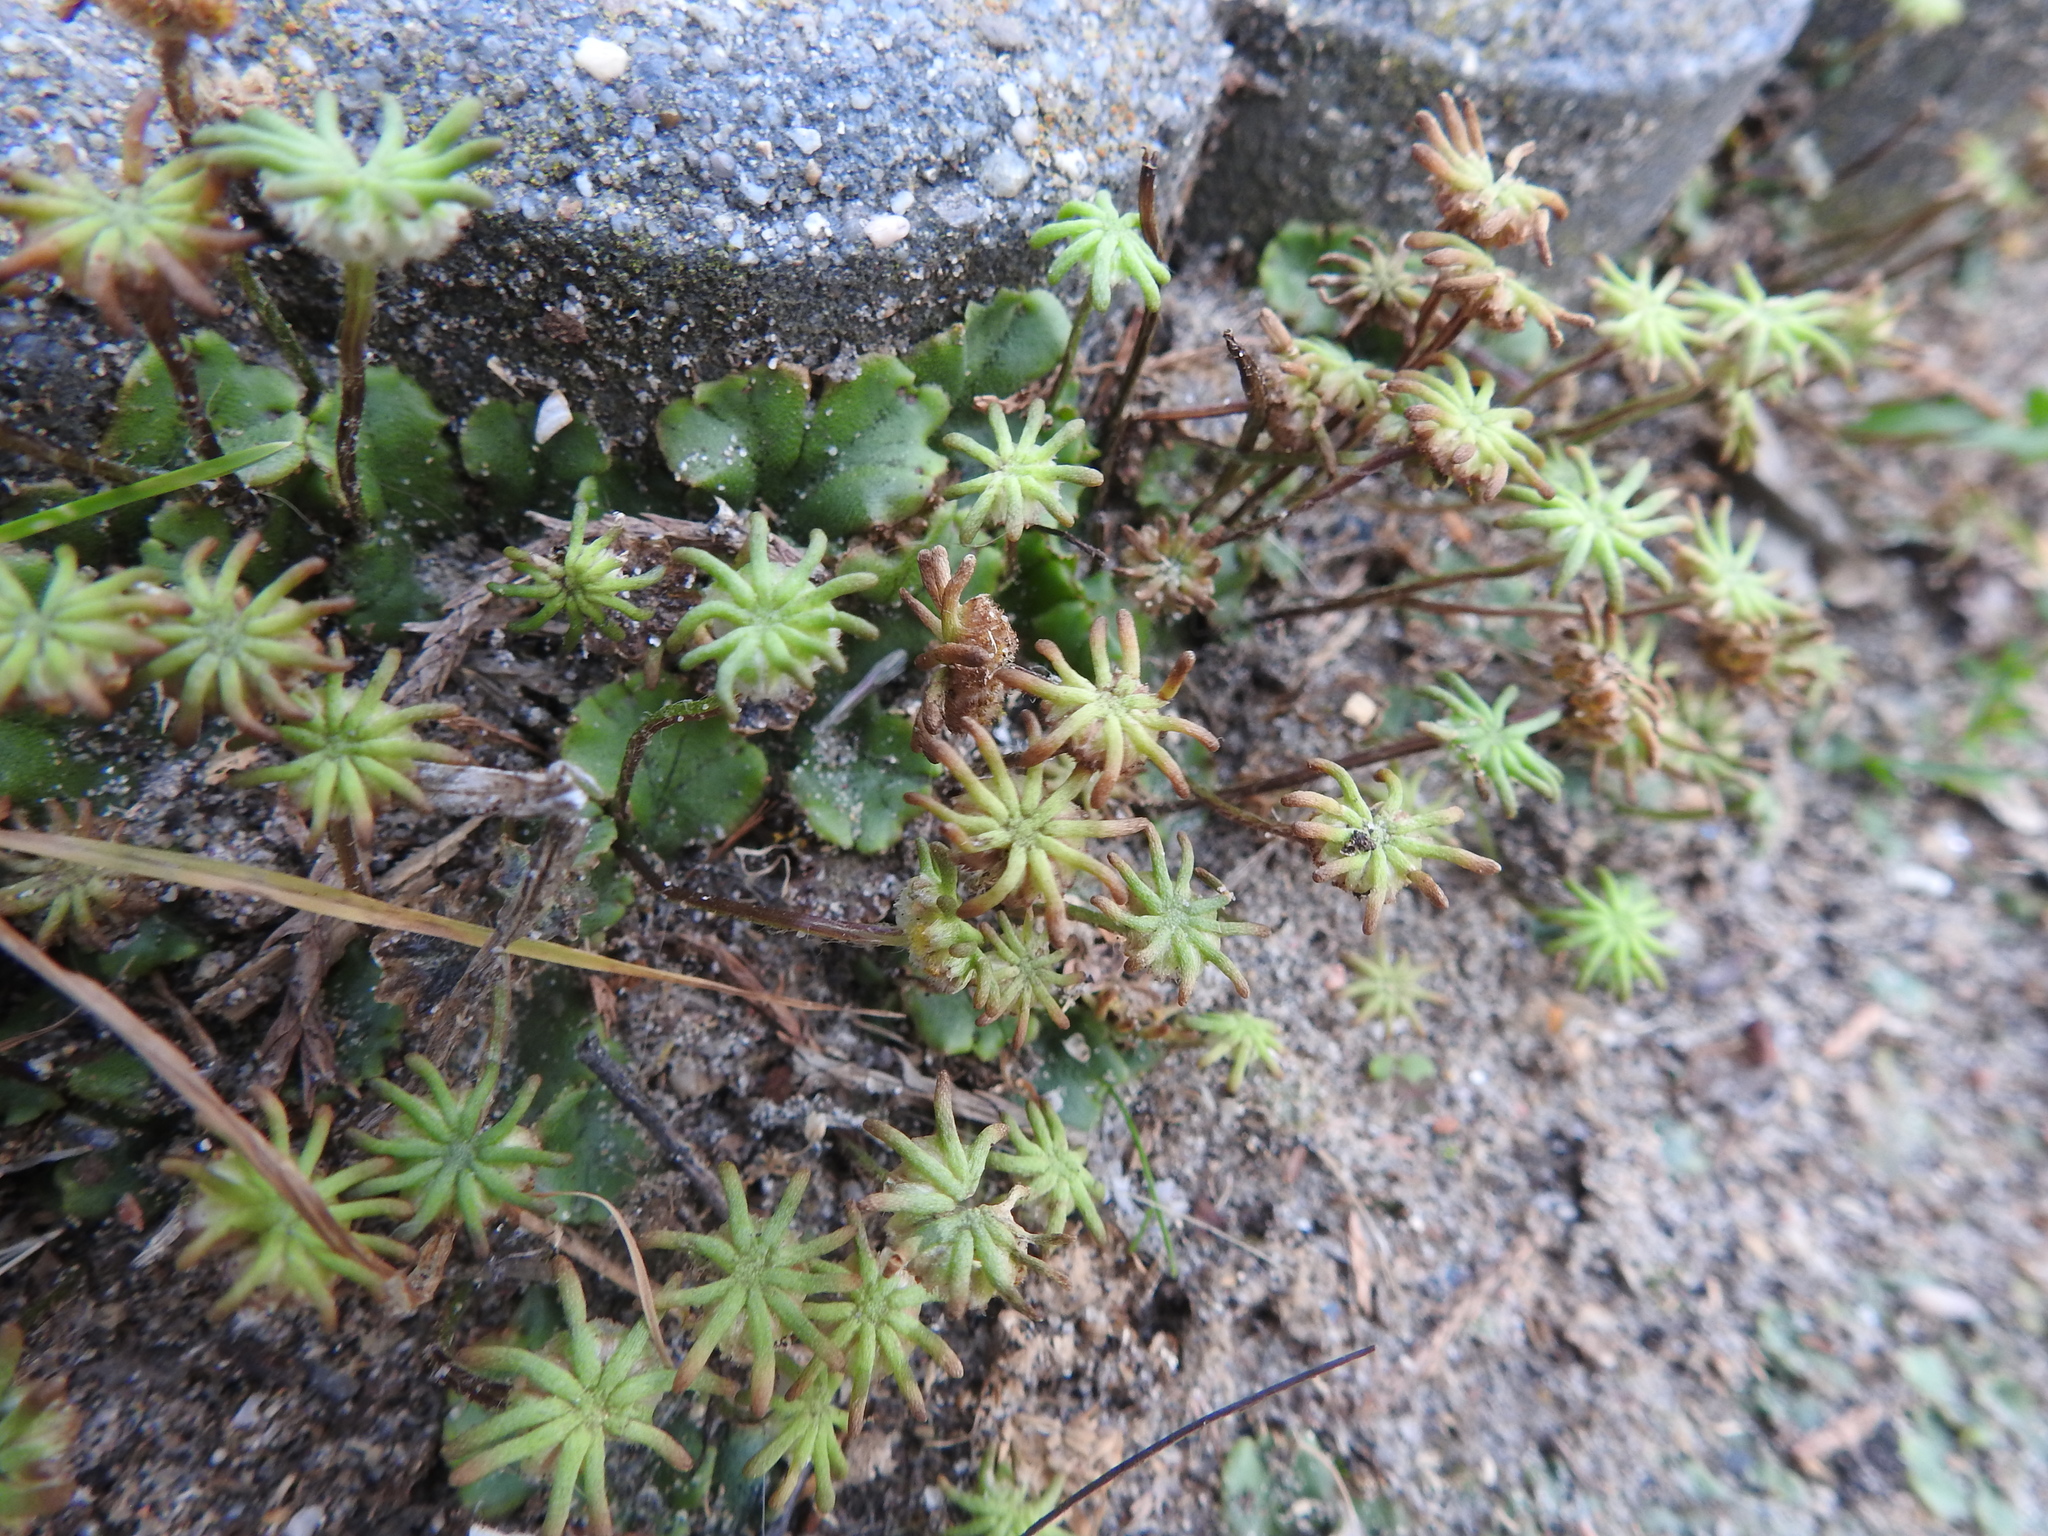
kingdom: Plantae
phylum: Marchantiophyta
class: Marchantiopsida
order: Marchantiales
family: Marchantiaceae
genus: Marchantia
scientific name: Marchantia polymorpha
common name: Common liverwort
